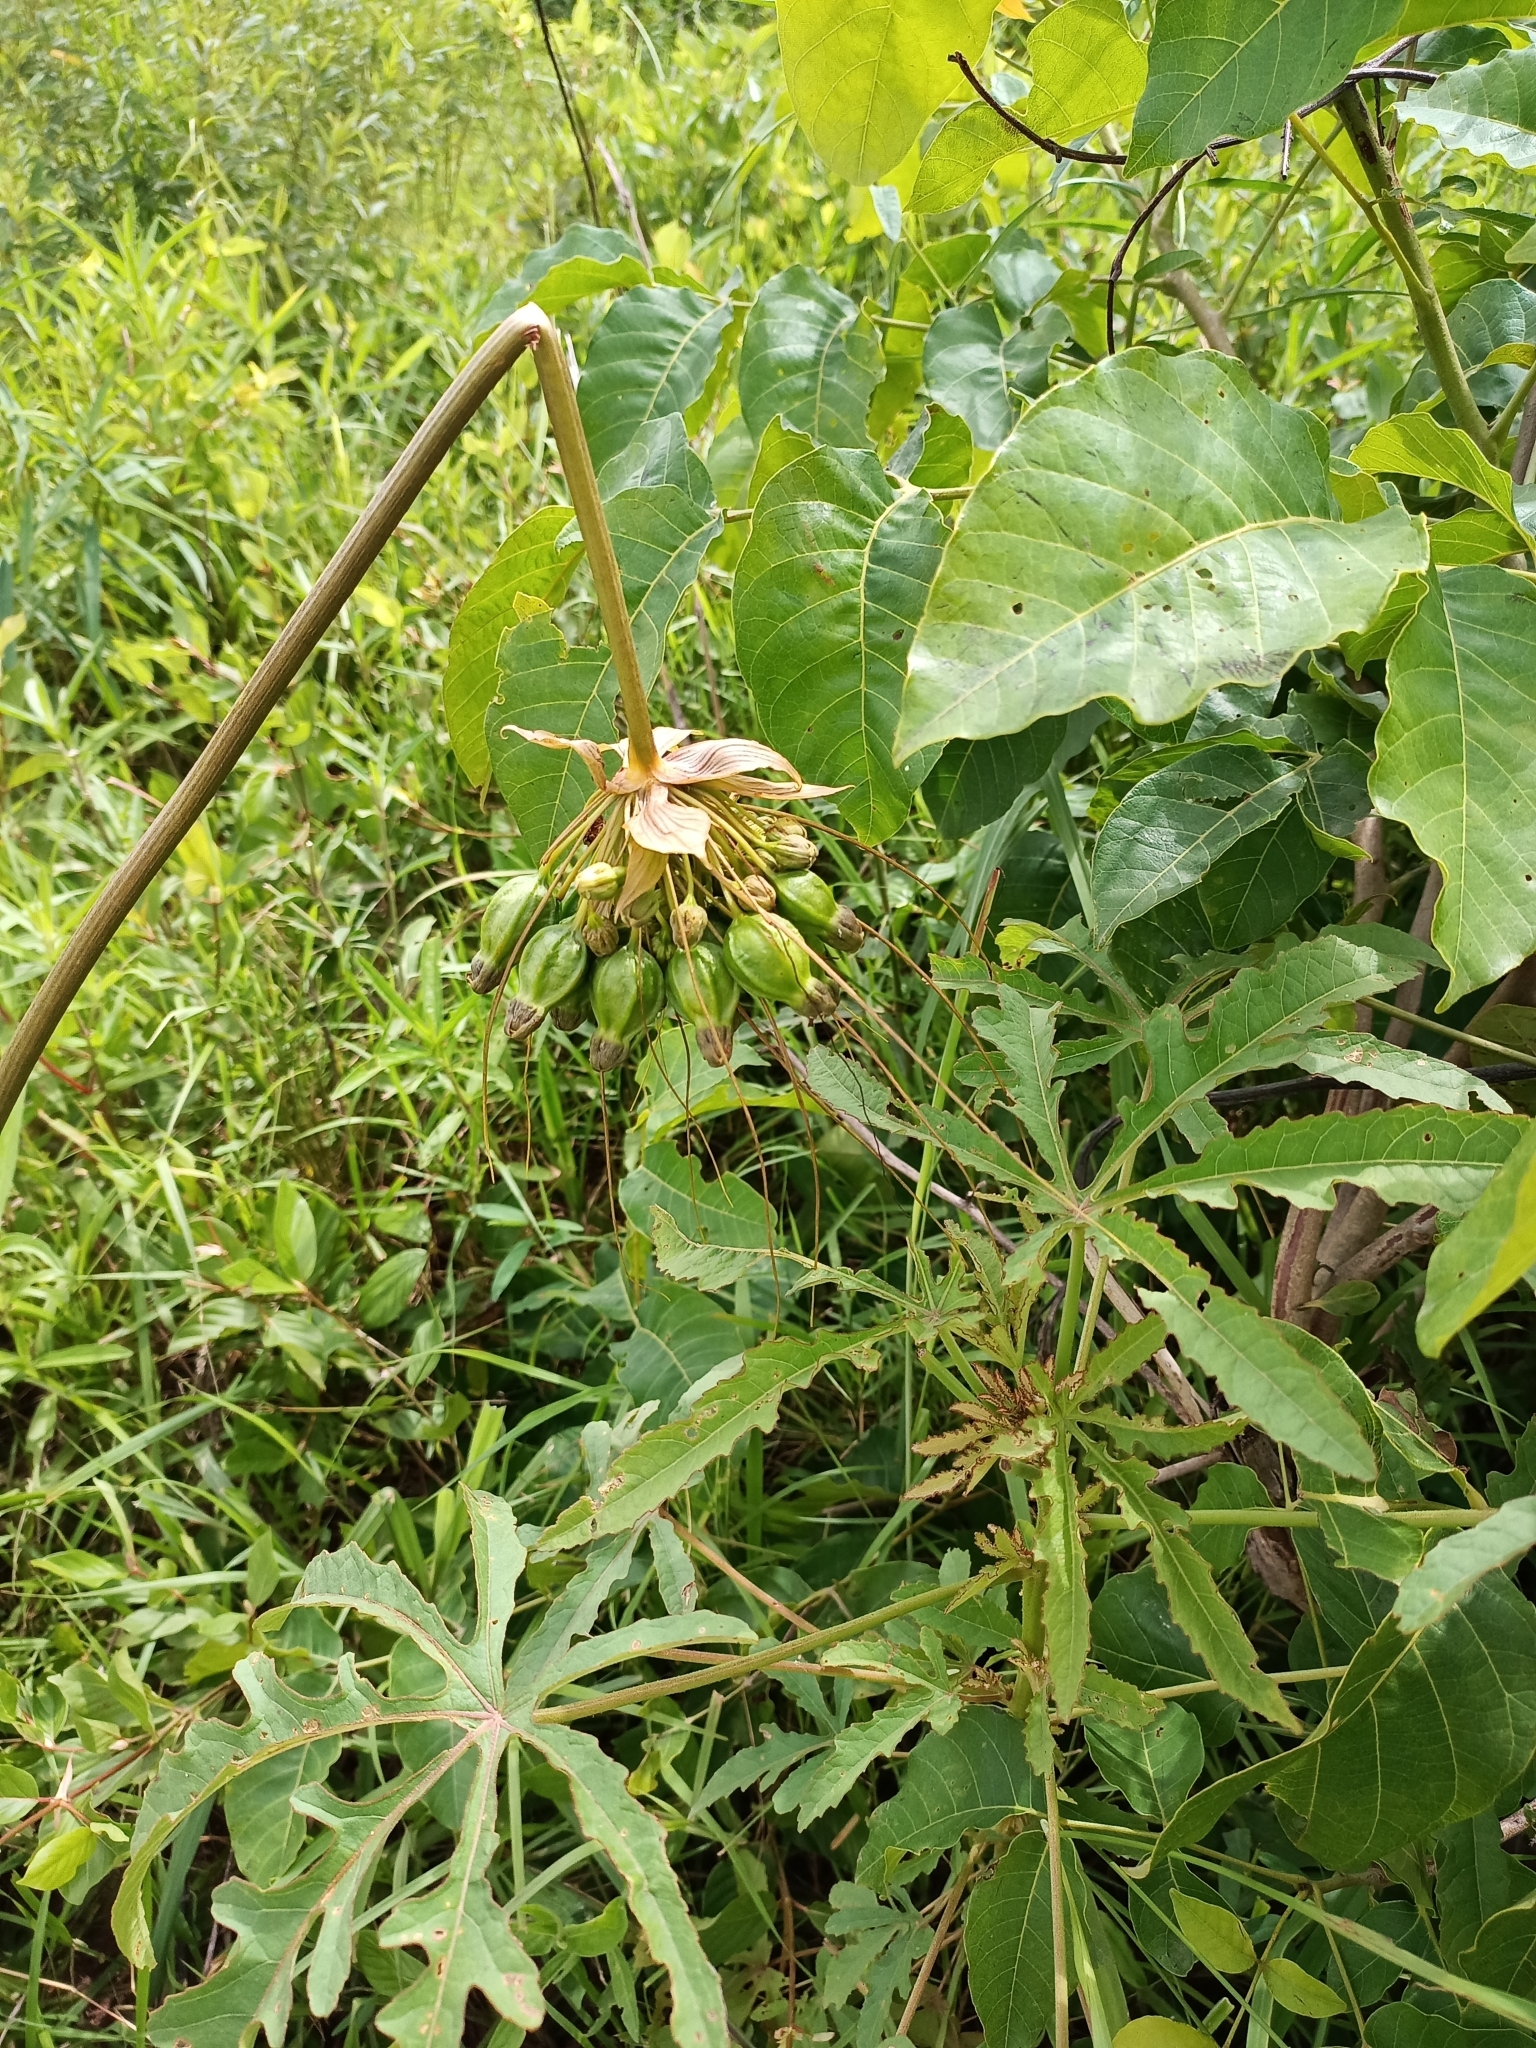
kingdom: Plantae
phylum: Tracheophyta
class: Liliopsida
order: Dioscoreales
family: Dioscoreaceae
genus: Tacca
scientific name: Tacca leontopetaloides
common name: Arrowroot
